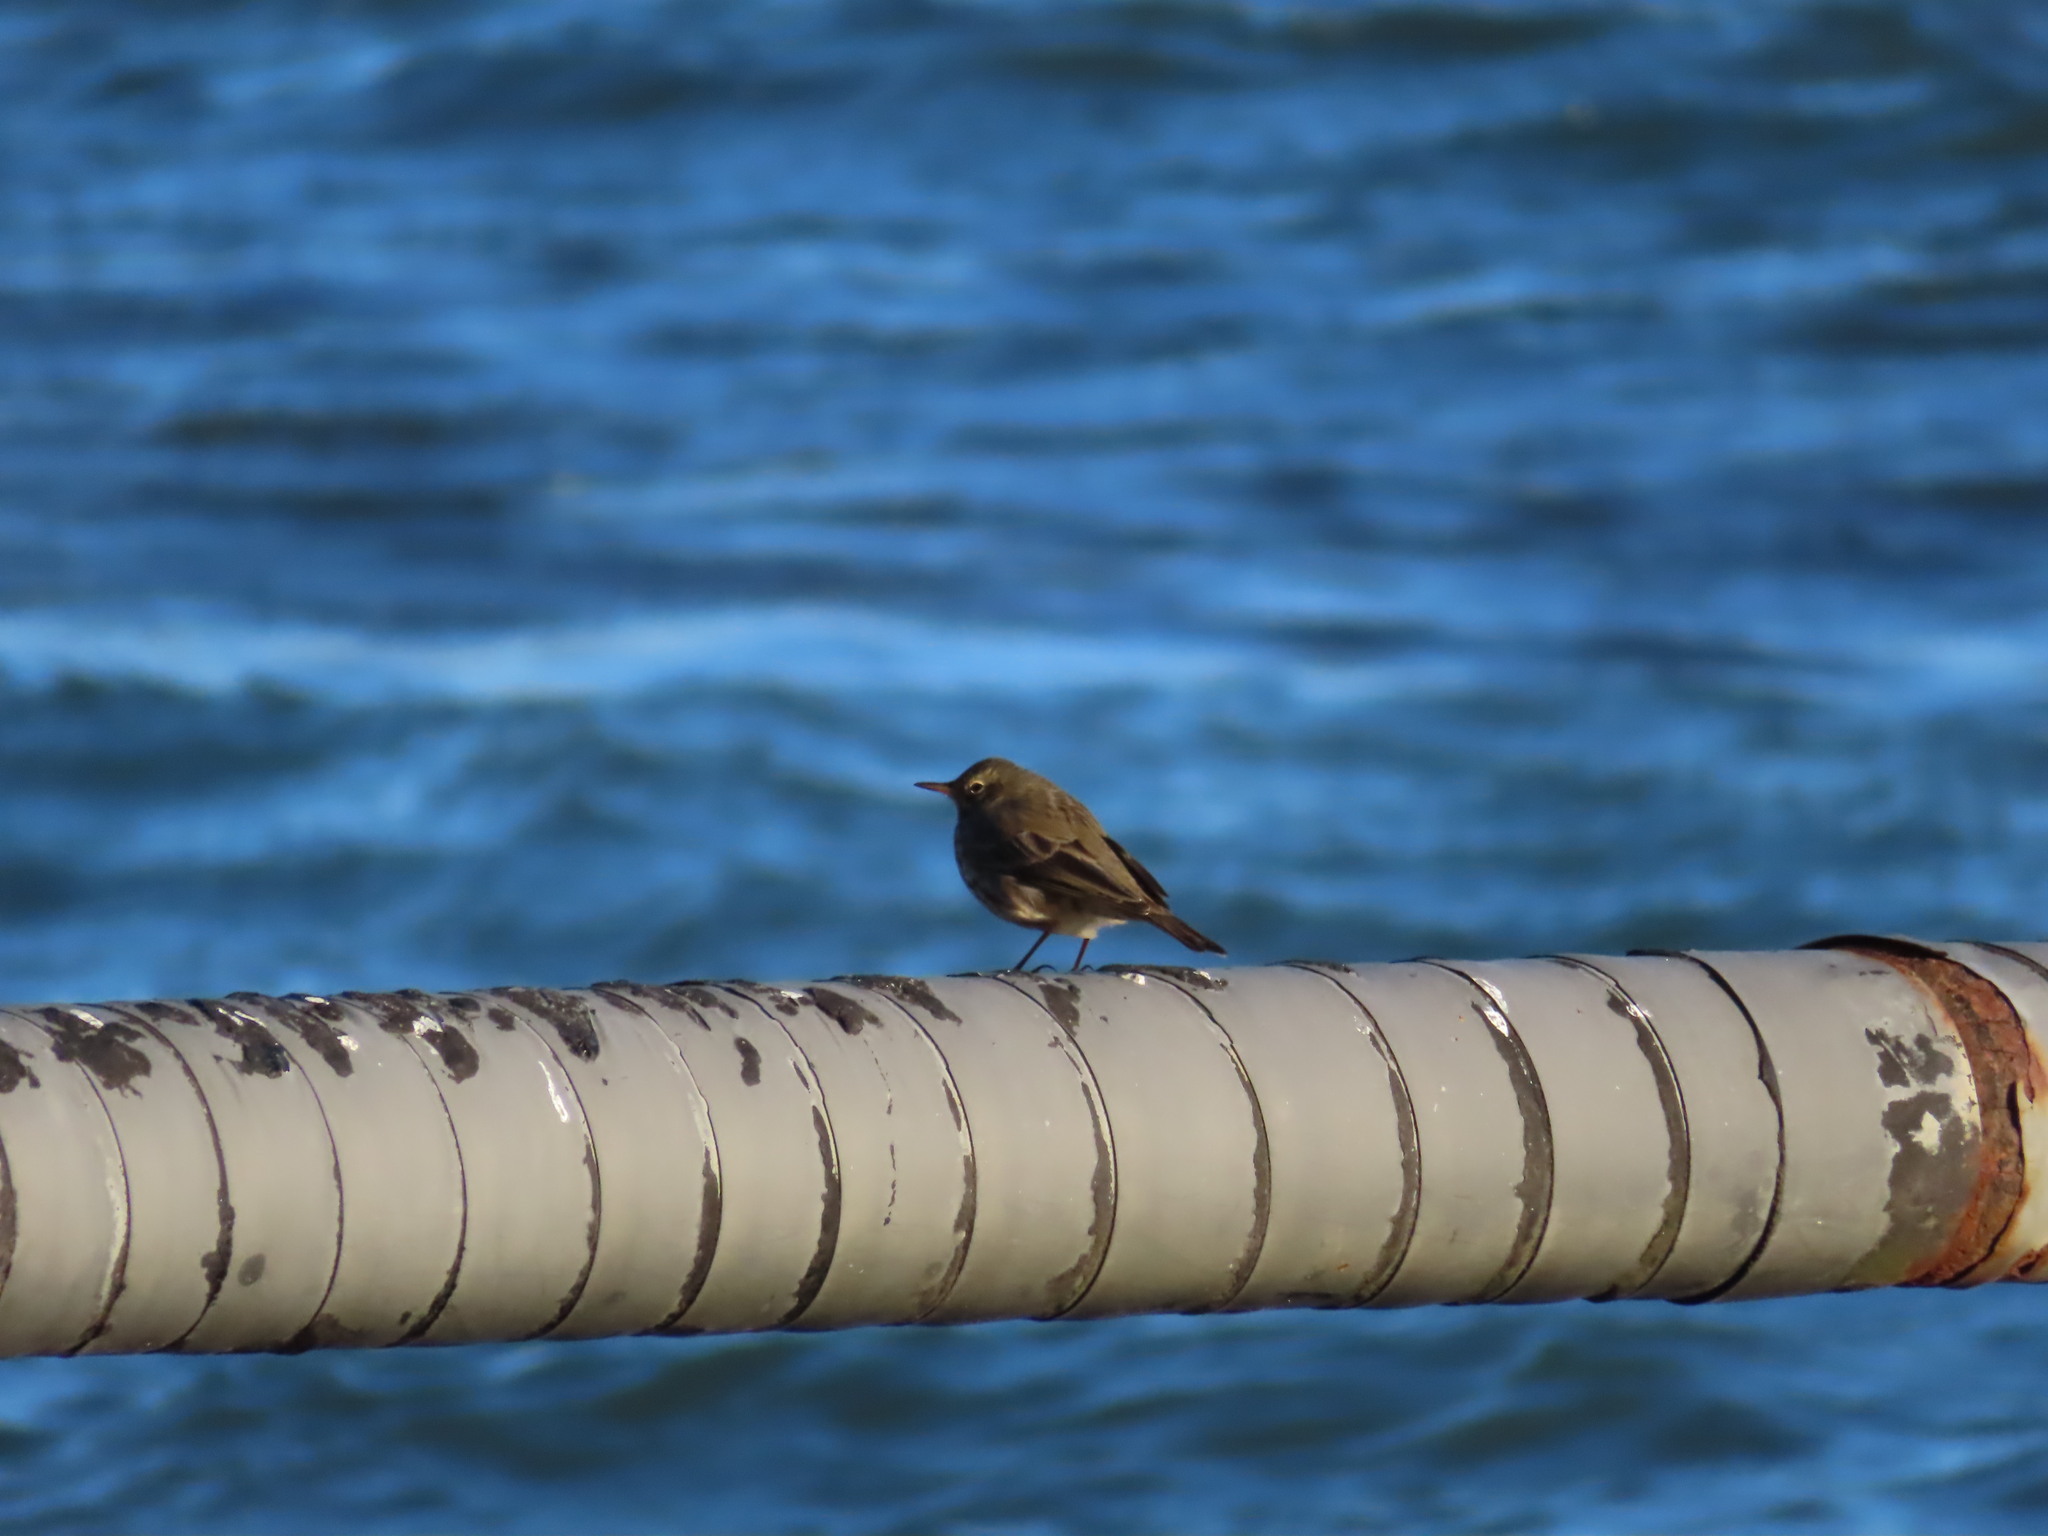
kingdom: Animalia
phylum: Chordata
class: Aves
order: Passeriformes
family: Motacillidae
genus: Anthus
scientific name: Anthus petrosus
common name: Eurasian rock pipit
